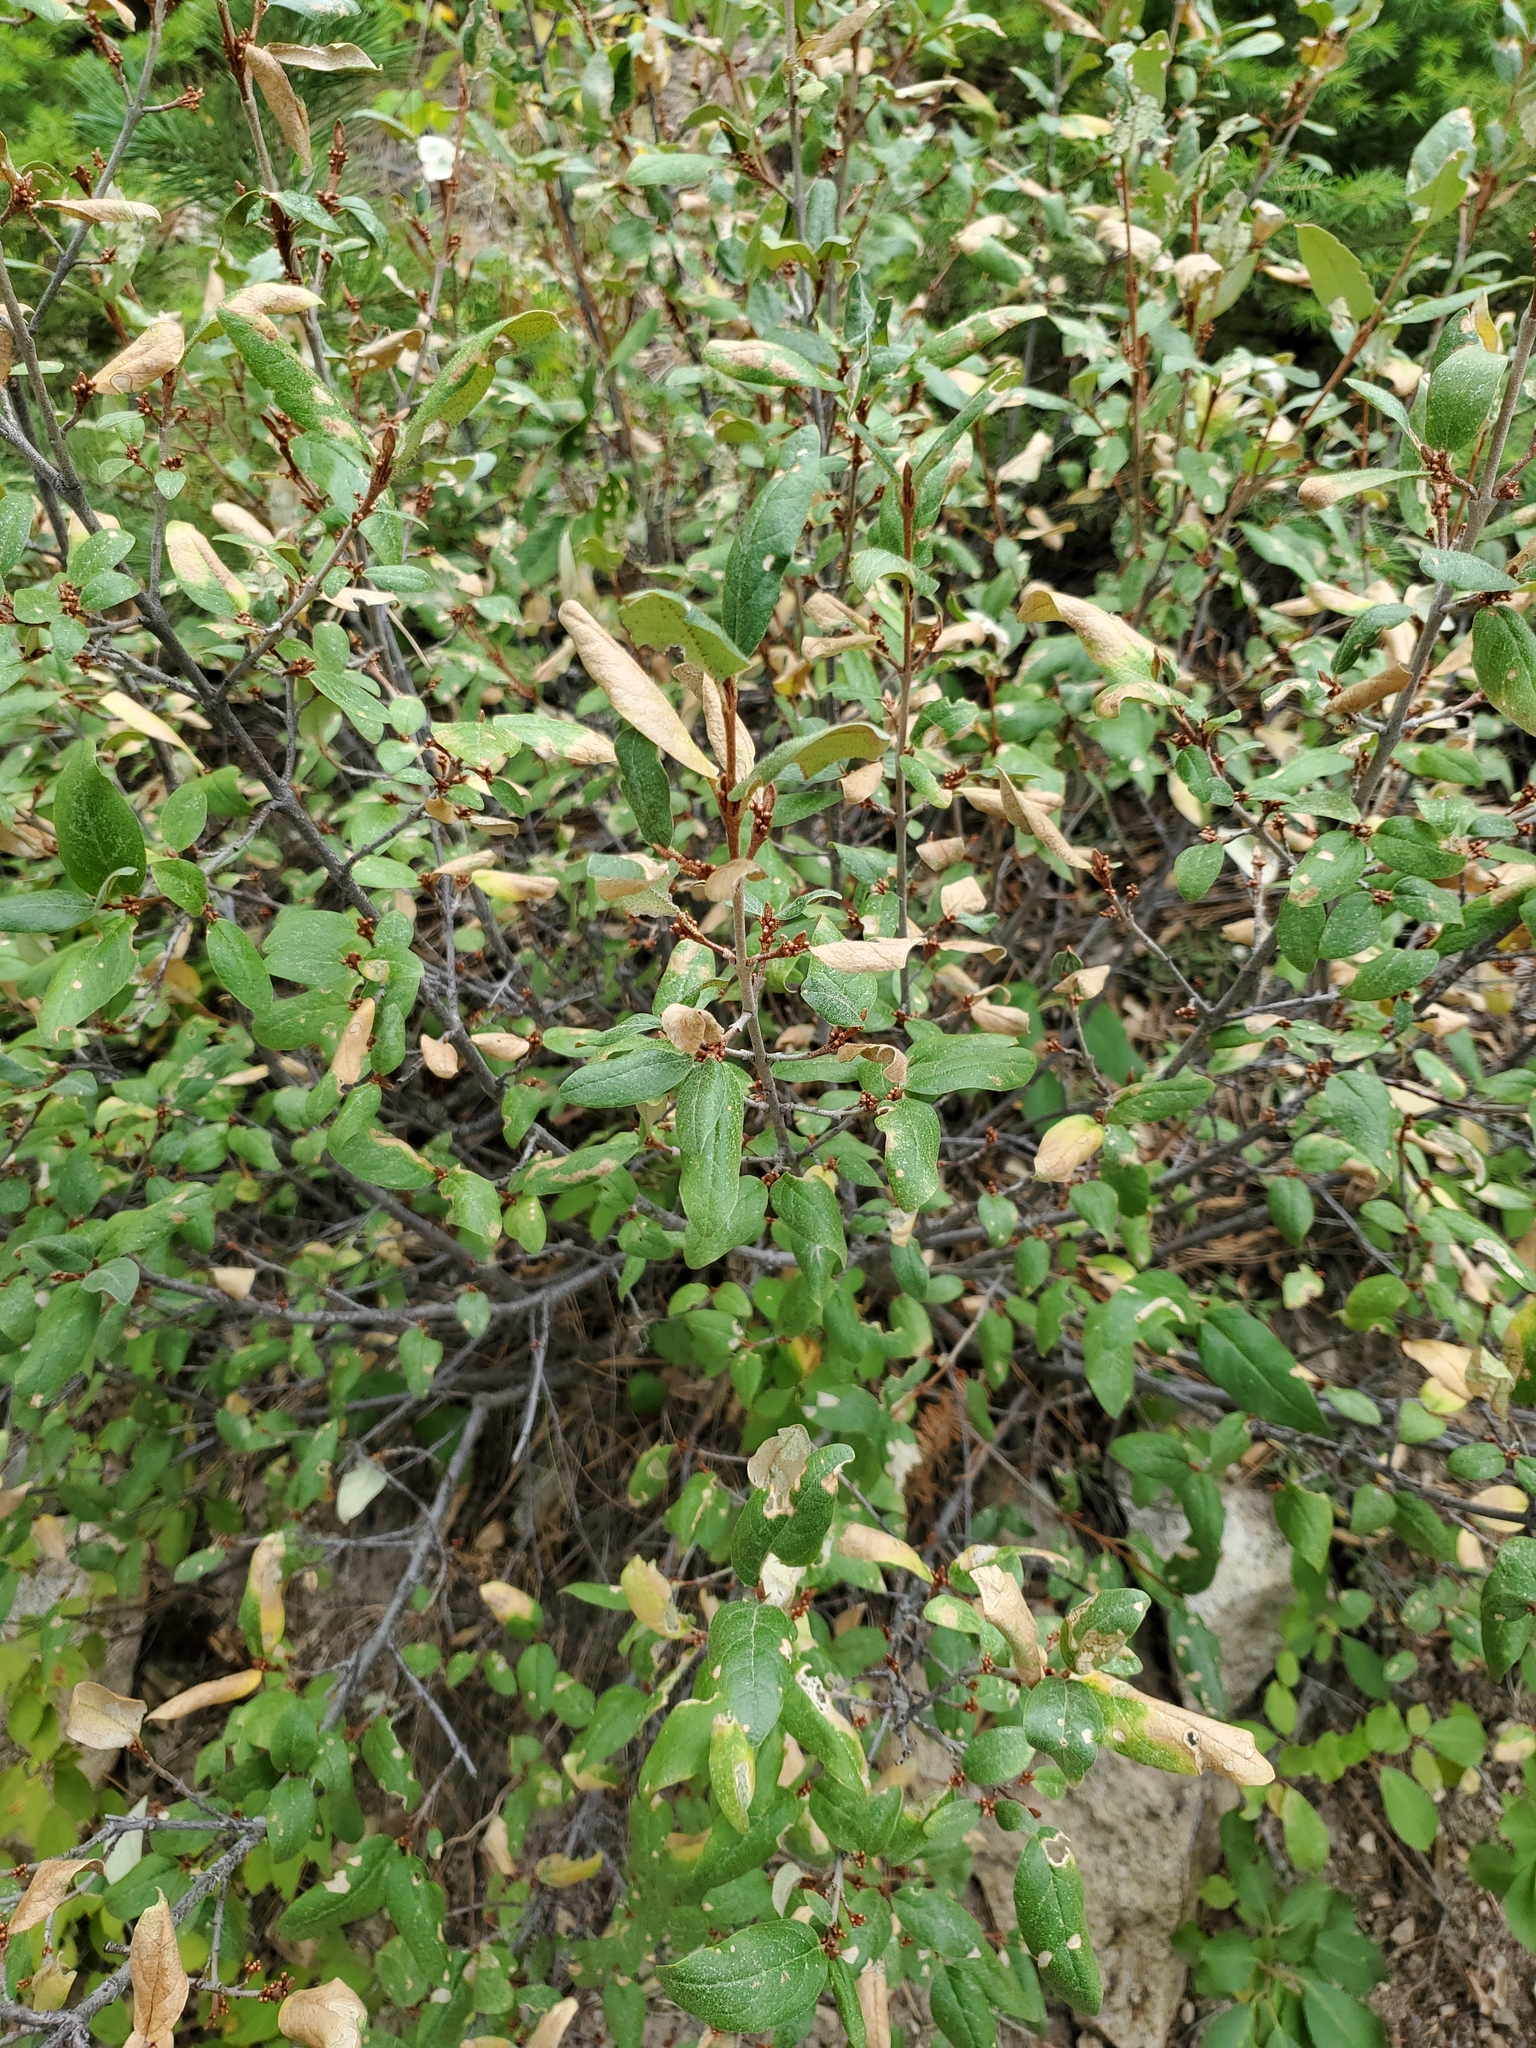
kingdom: Plantae
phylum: Tracheophyta
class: Magnoliopsida
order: Rosales
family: Elaeagnaceae
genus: Shepherdia
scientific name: Shepherdia canadensis
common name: Soapberry
